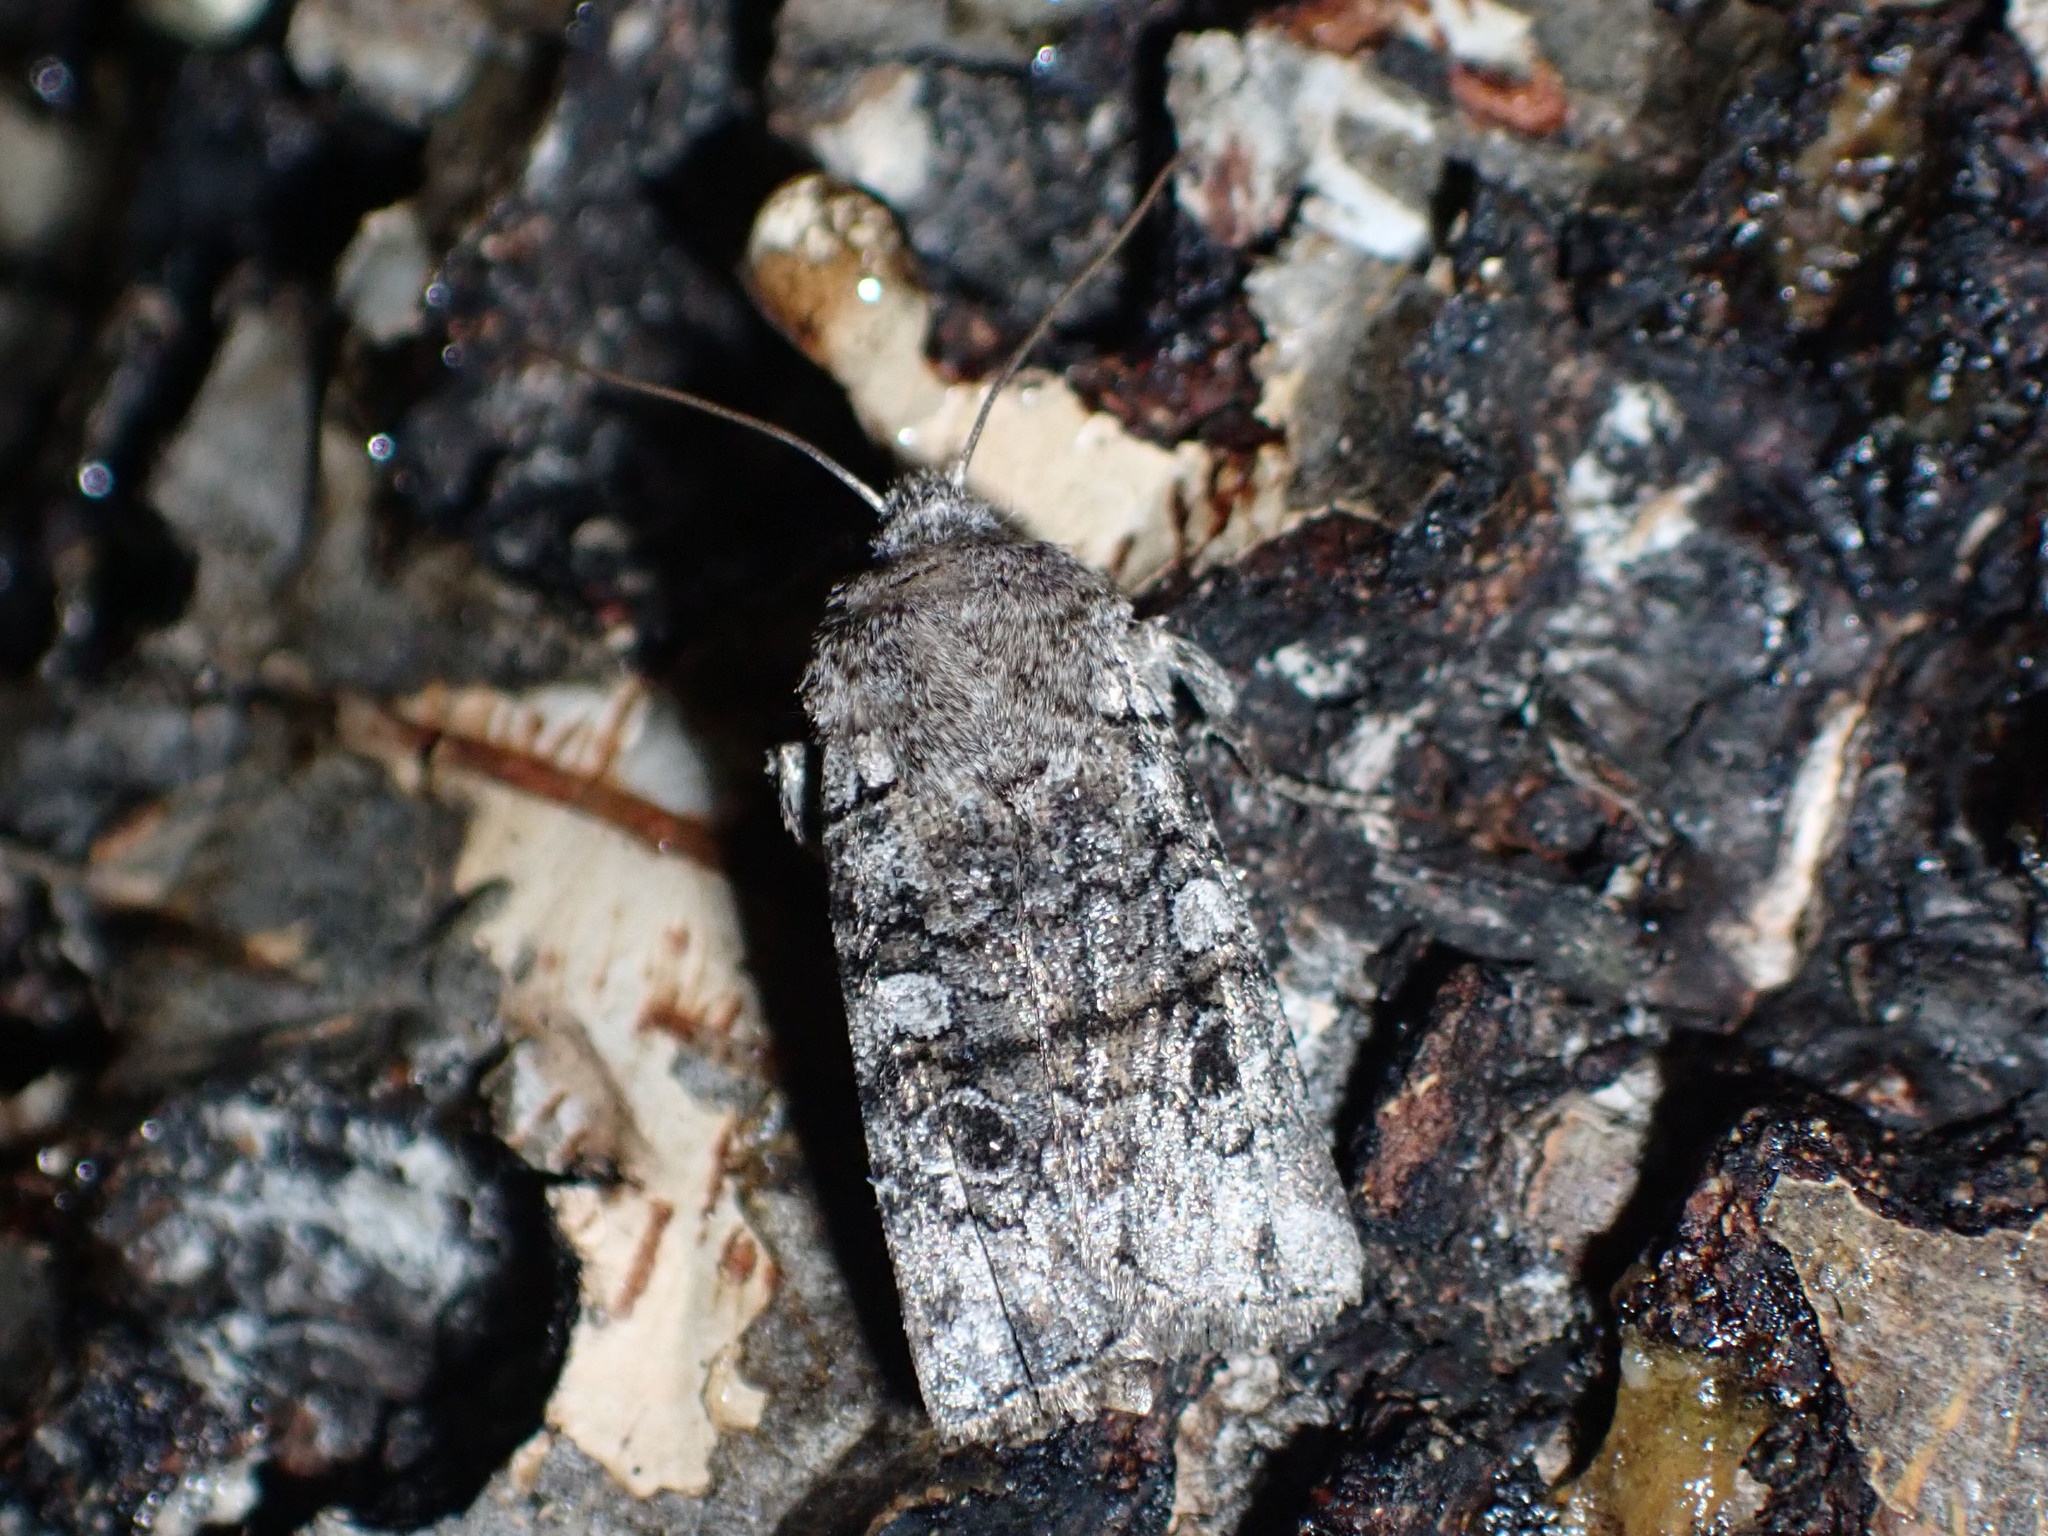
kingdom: Animalia
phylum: Arthropoda
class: Insecta
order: Lepidoptera
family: Noctuidae
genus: Litholomia
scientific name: Litholomia napaea
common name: False pinion moth
